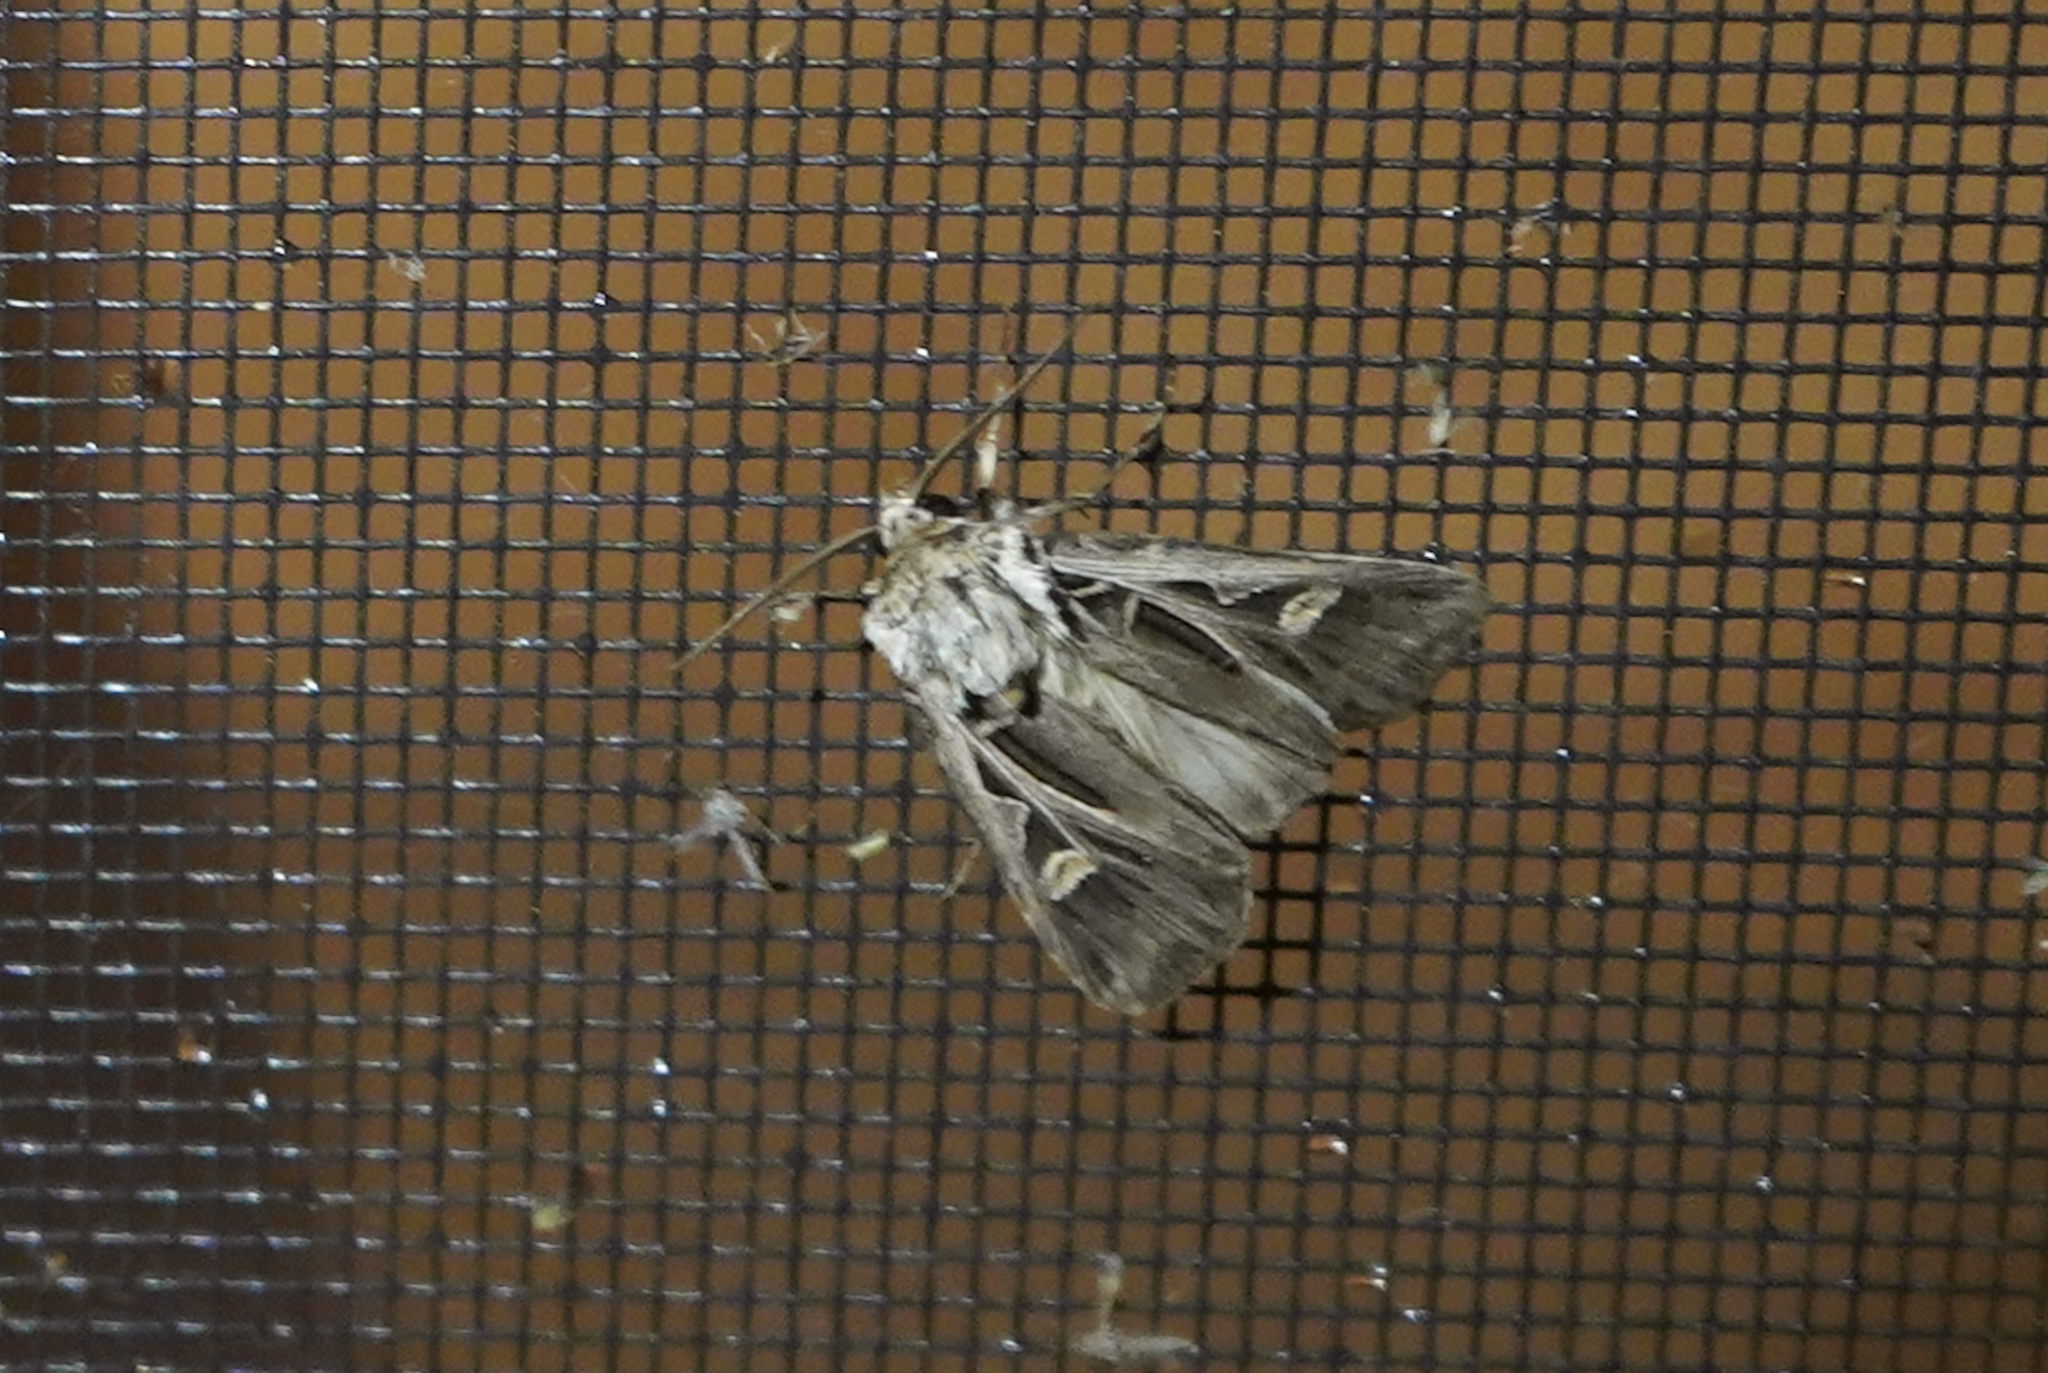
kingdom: Animalia
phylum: Arthropoda
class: Insecta
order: Lepidoptera
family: Noctuidae
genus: Feltia
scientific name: Feltia jaculifera
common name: Dingy cutworm moth
